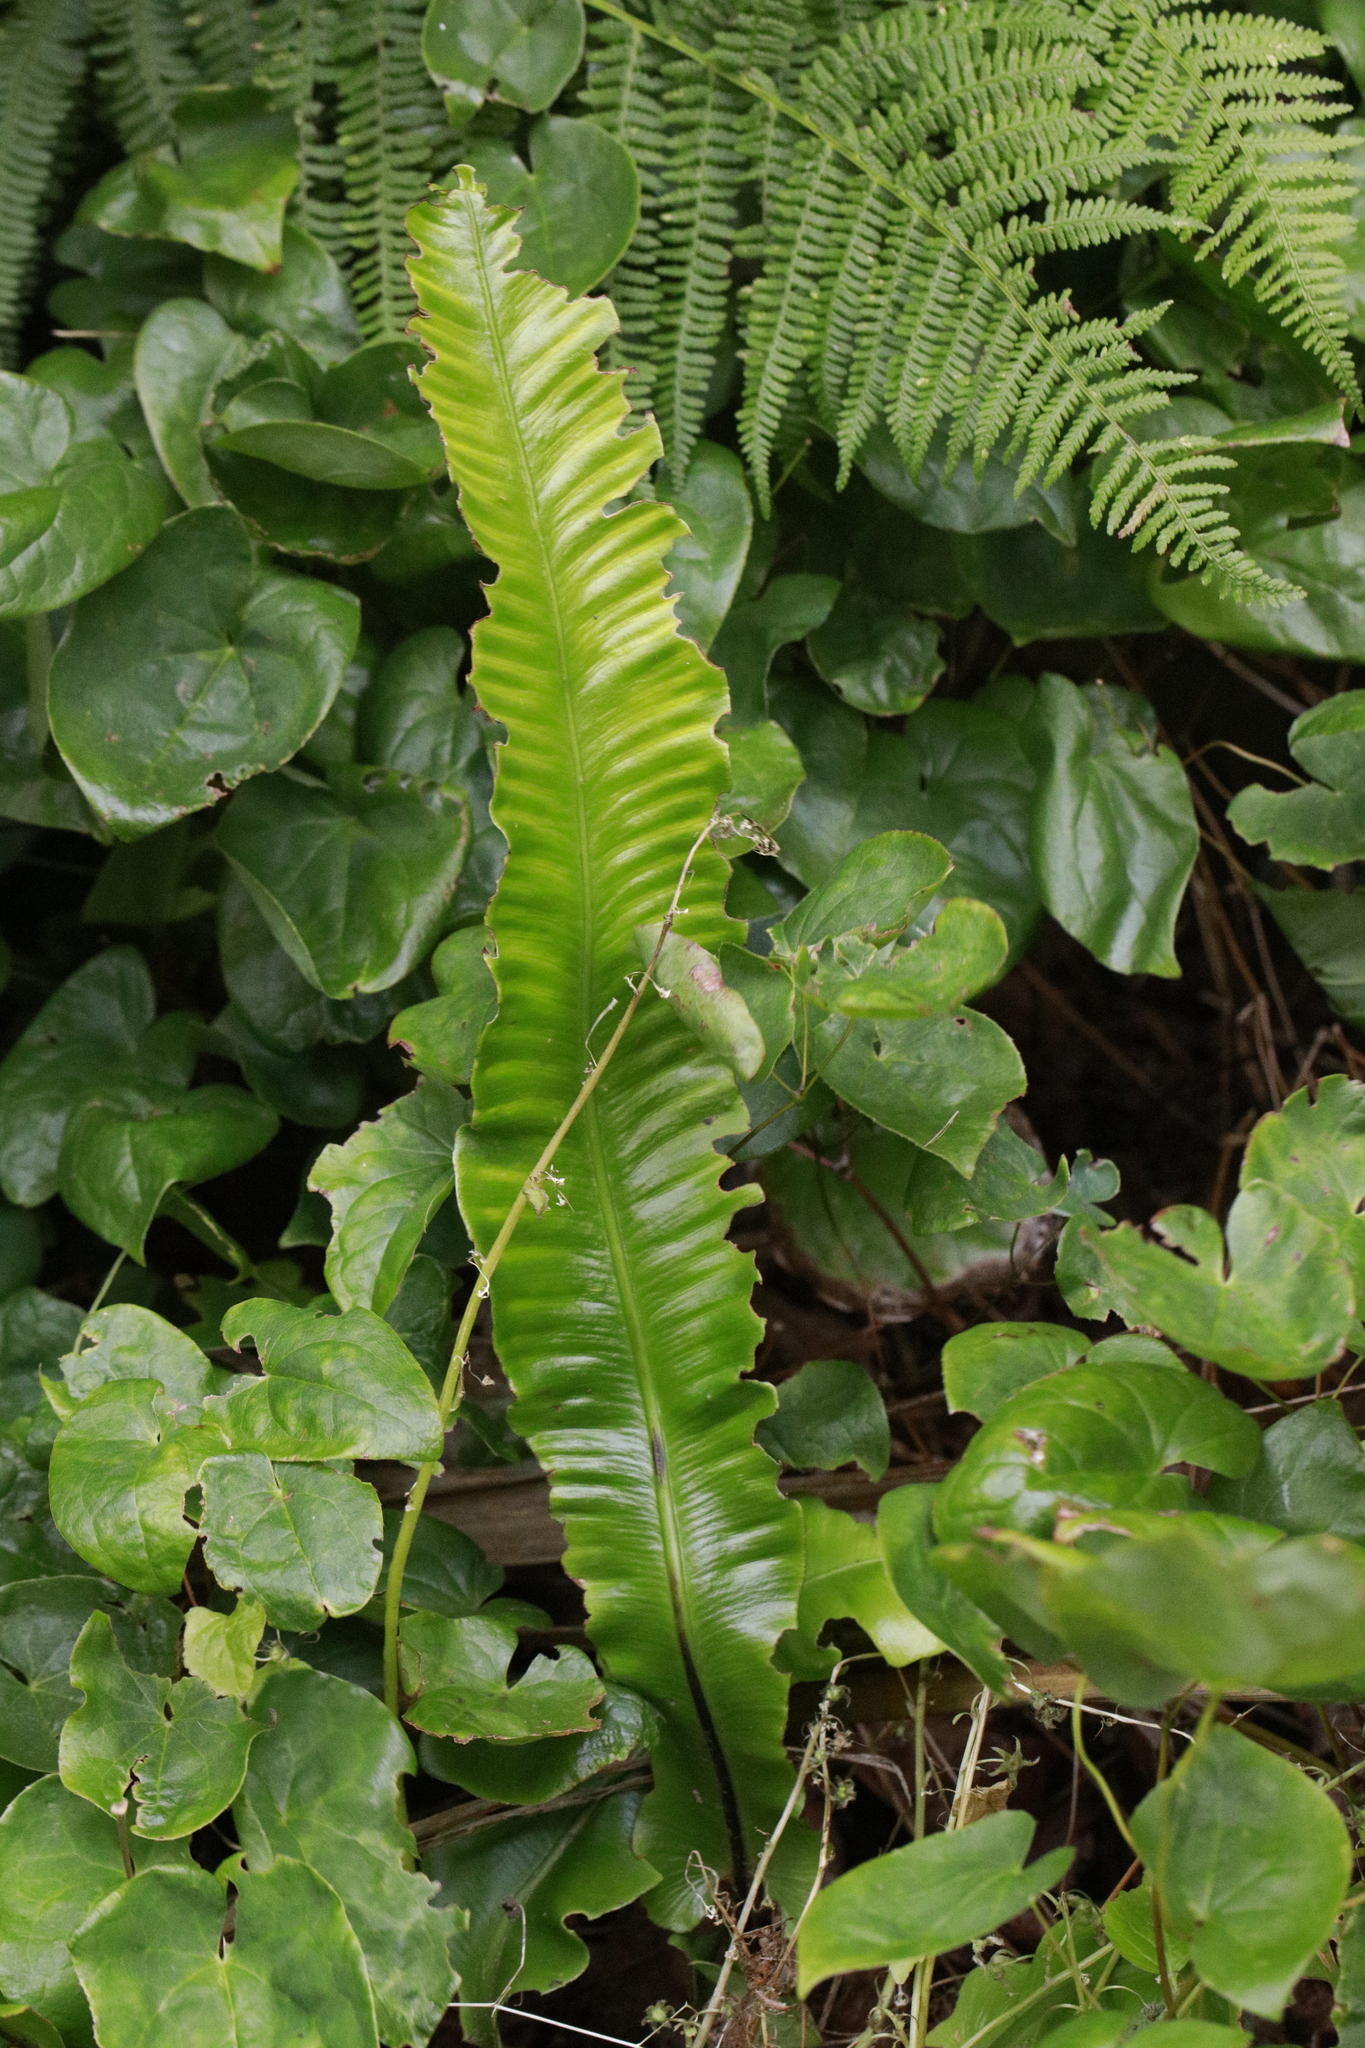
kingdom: Plantae
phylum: Tracheophyta
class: Polypodiopsida
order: Polypodiales
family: Aspleniaceae
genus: Asplenium
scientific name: Asplenium scolopendrium
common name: Hart's-tongue fern
